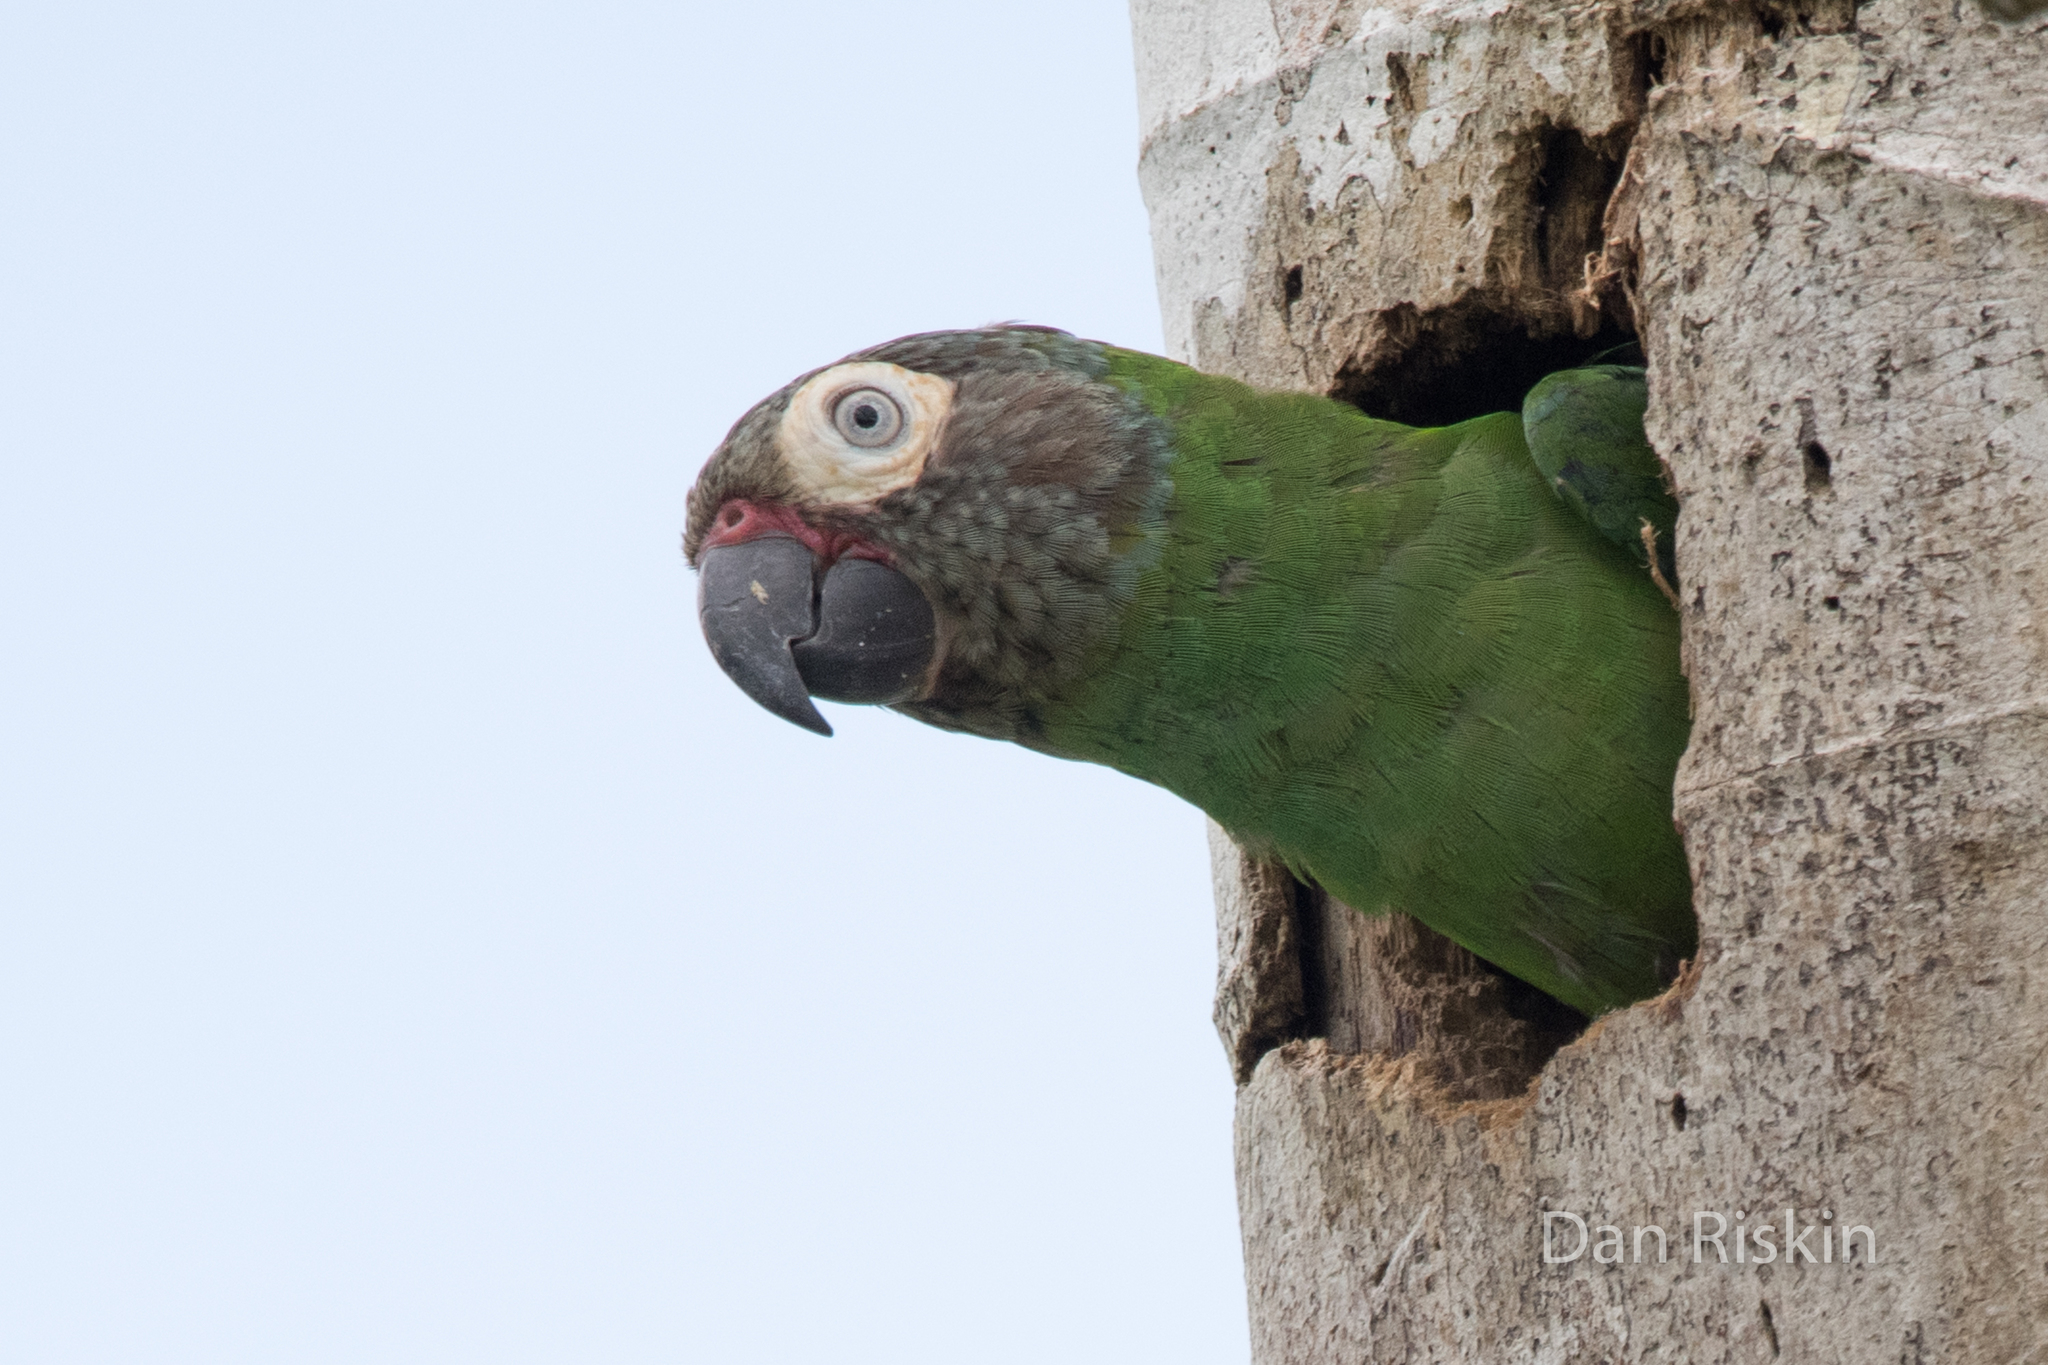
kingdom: Animalia
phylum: Chordata
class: Aves
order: Psittaciformes
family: Psittacidae
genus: Aratinga
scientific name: Aratinga weddellii
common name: Dusky-headed parakeet
